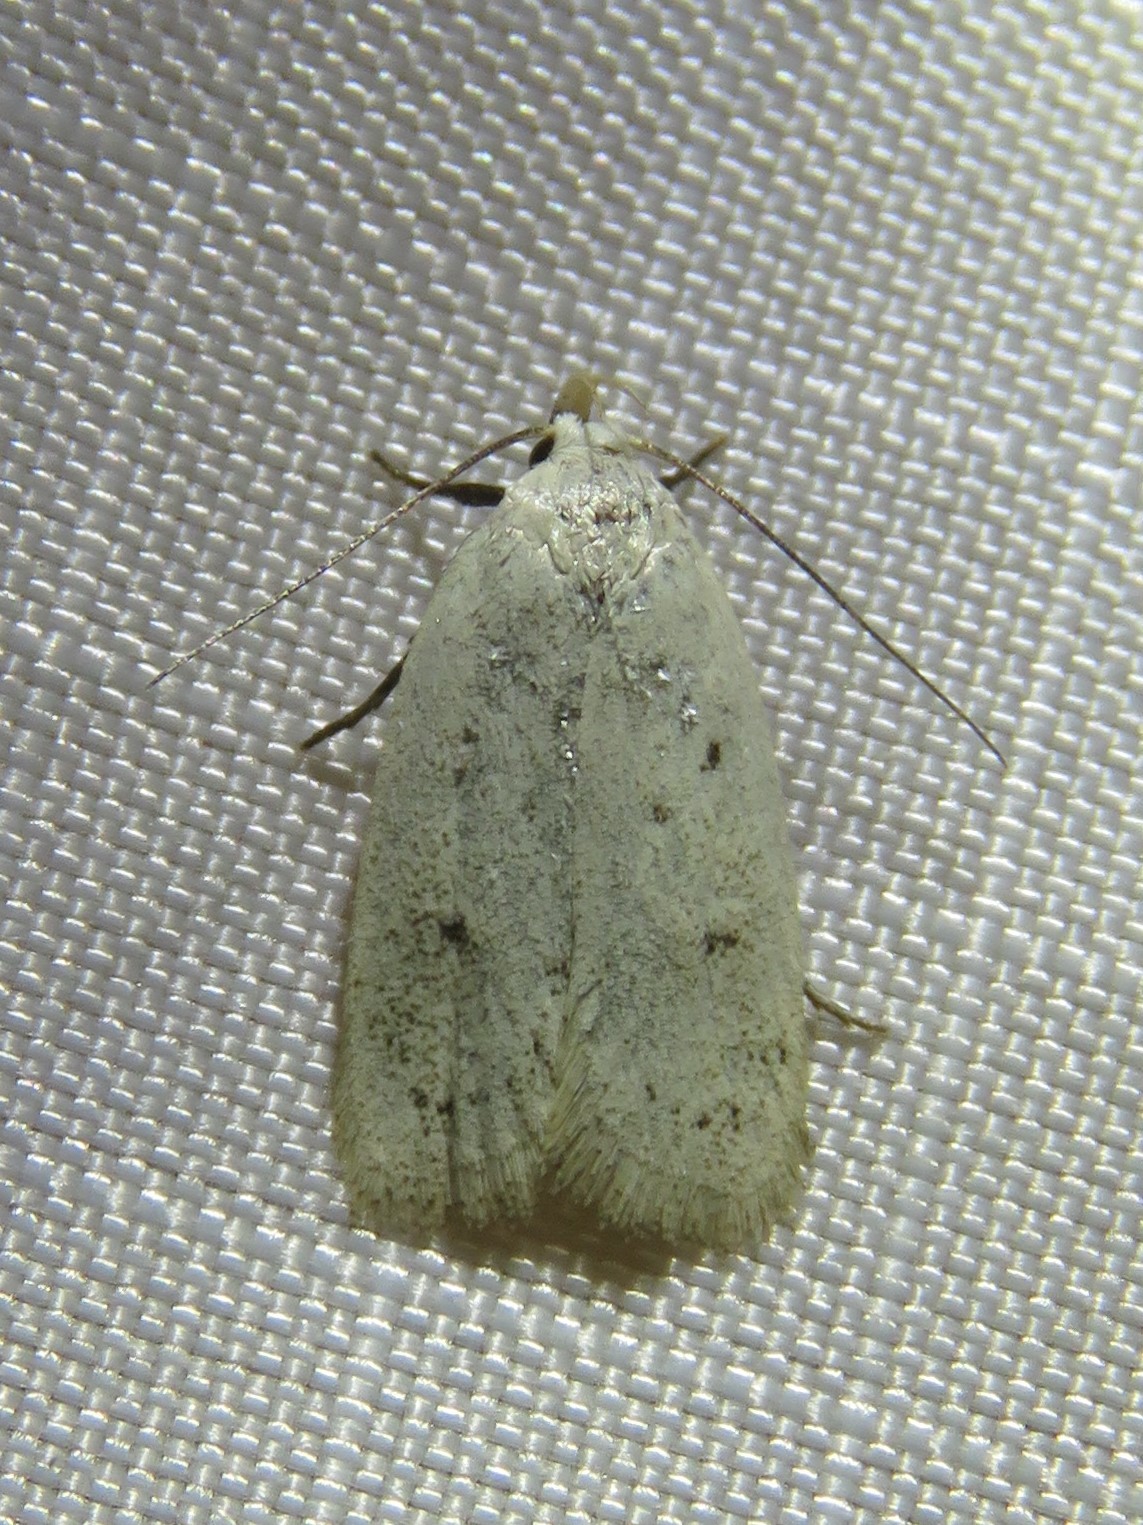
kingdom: Animalia
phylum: Arthropoda
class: Insecta
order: Lepidoptera
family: Oecophoridae
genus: Inga
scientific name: Inga cretacea
